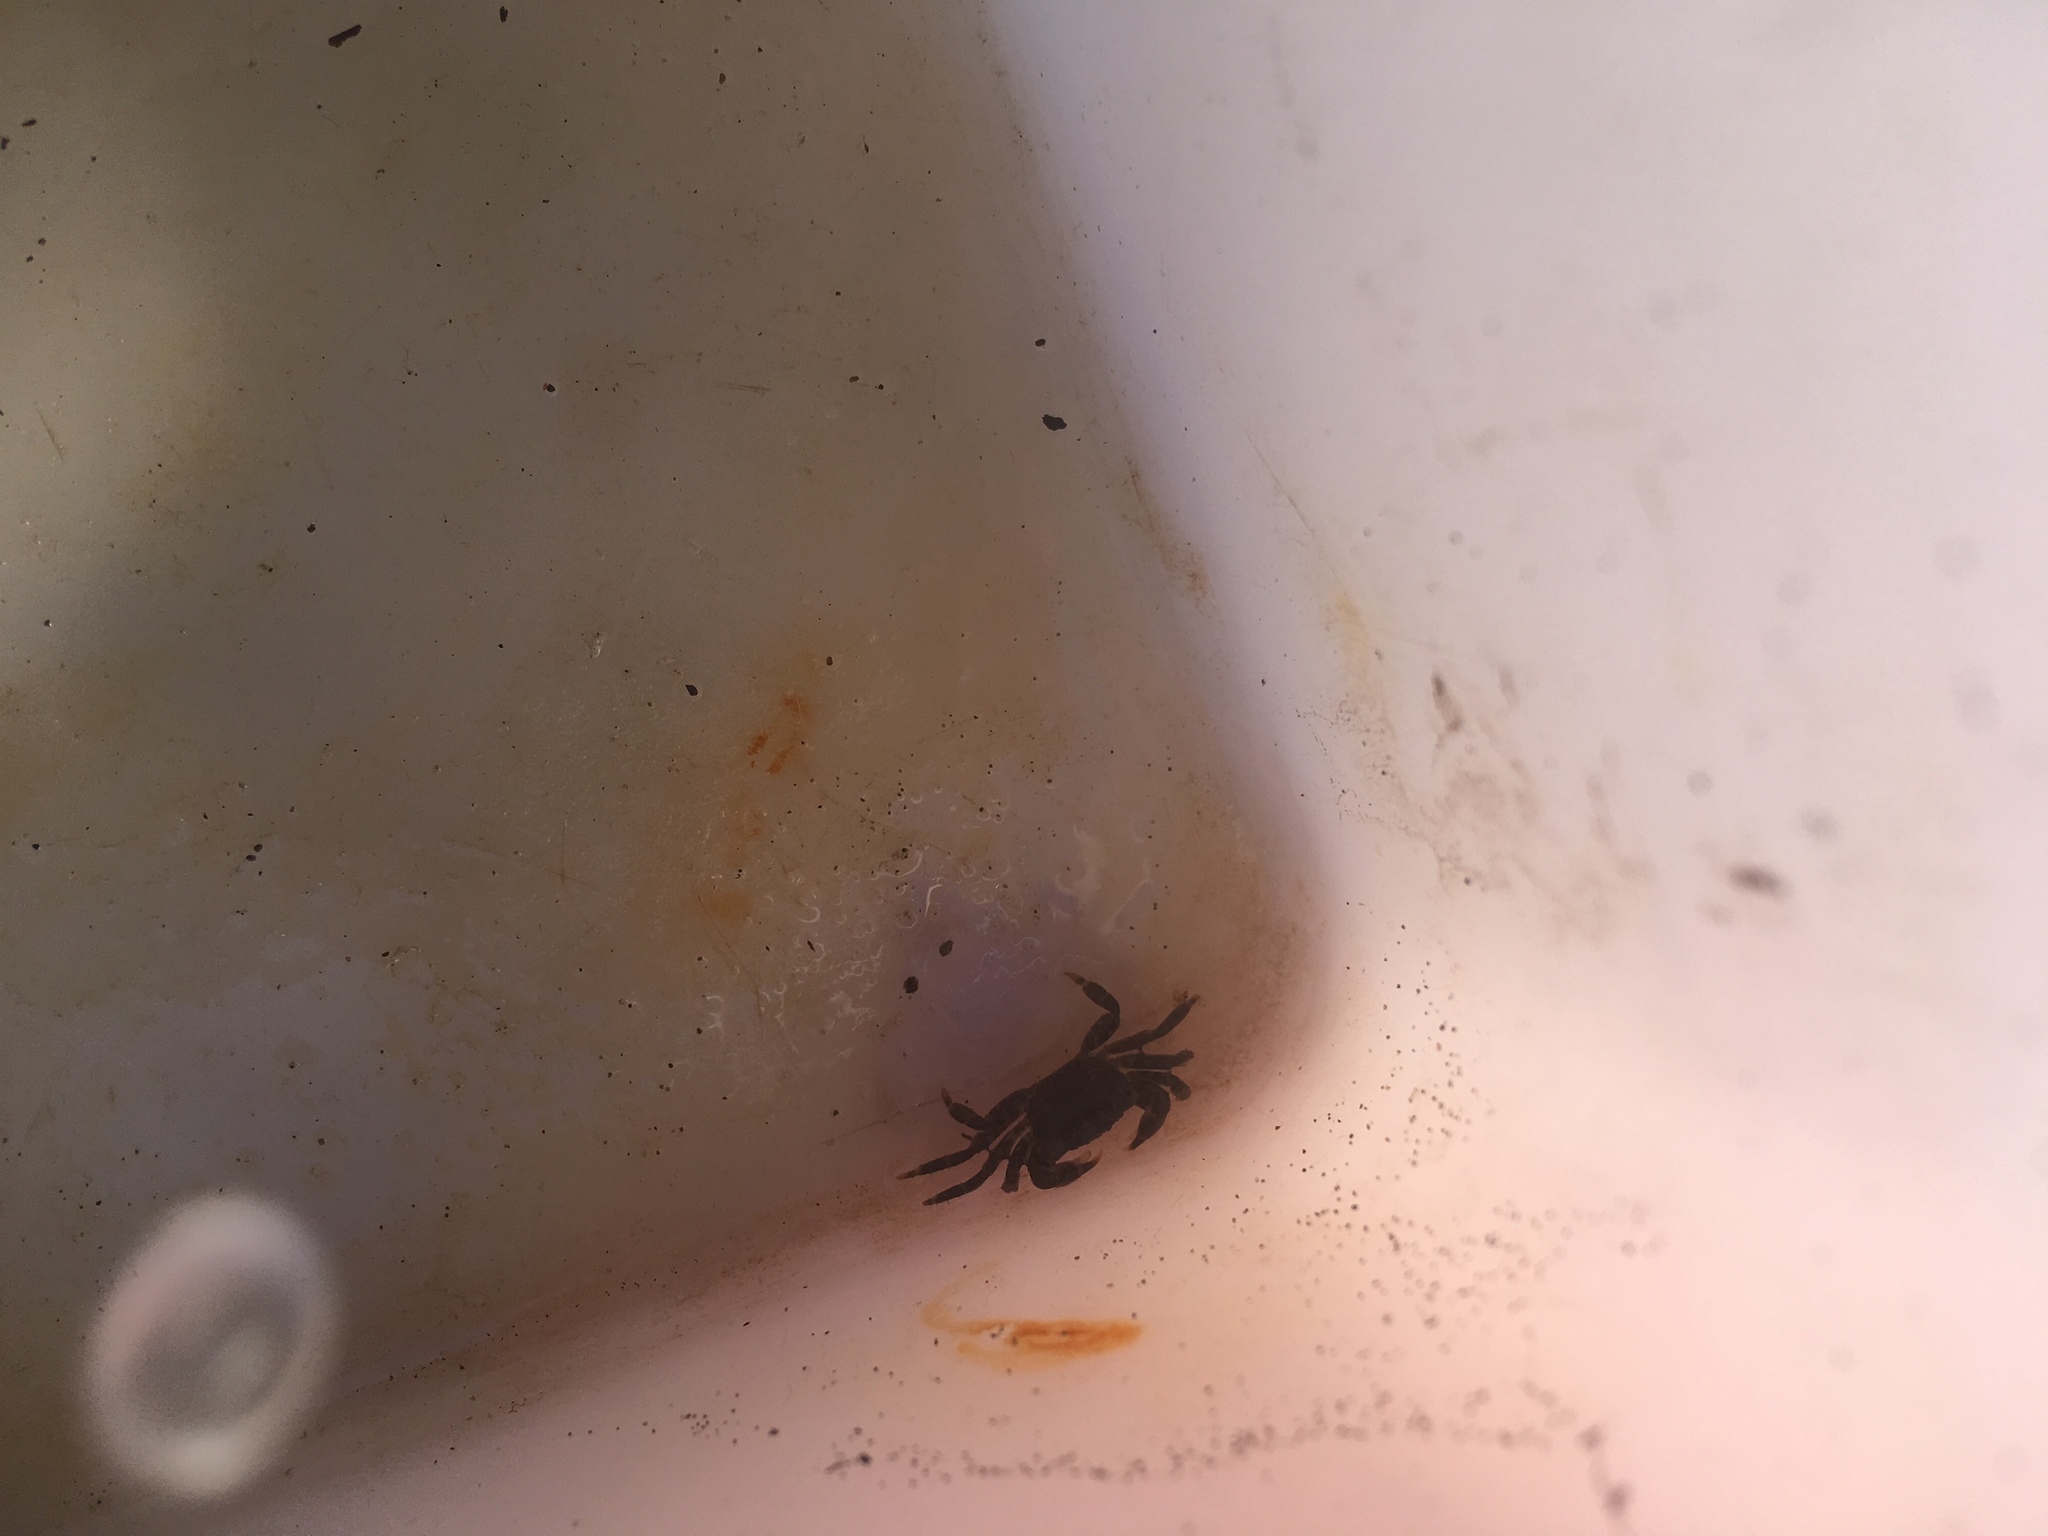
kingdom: Animalia
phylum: Arthropoda
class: Malacostraca
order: Decapoda
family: Grapsidae
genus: Pachygrapsus
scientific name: Pachygrapsus crassipes
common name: Striped shore crab
